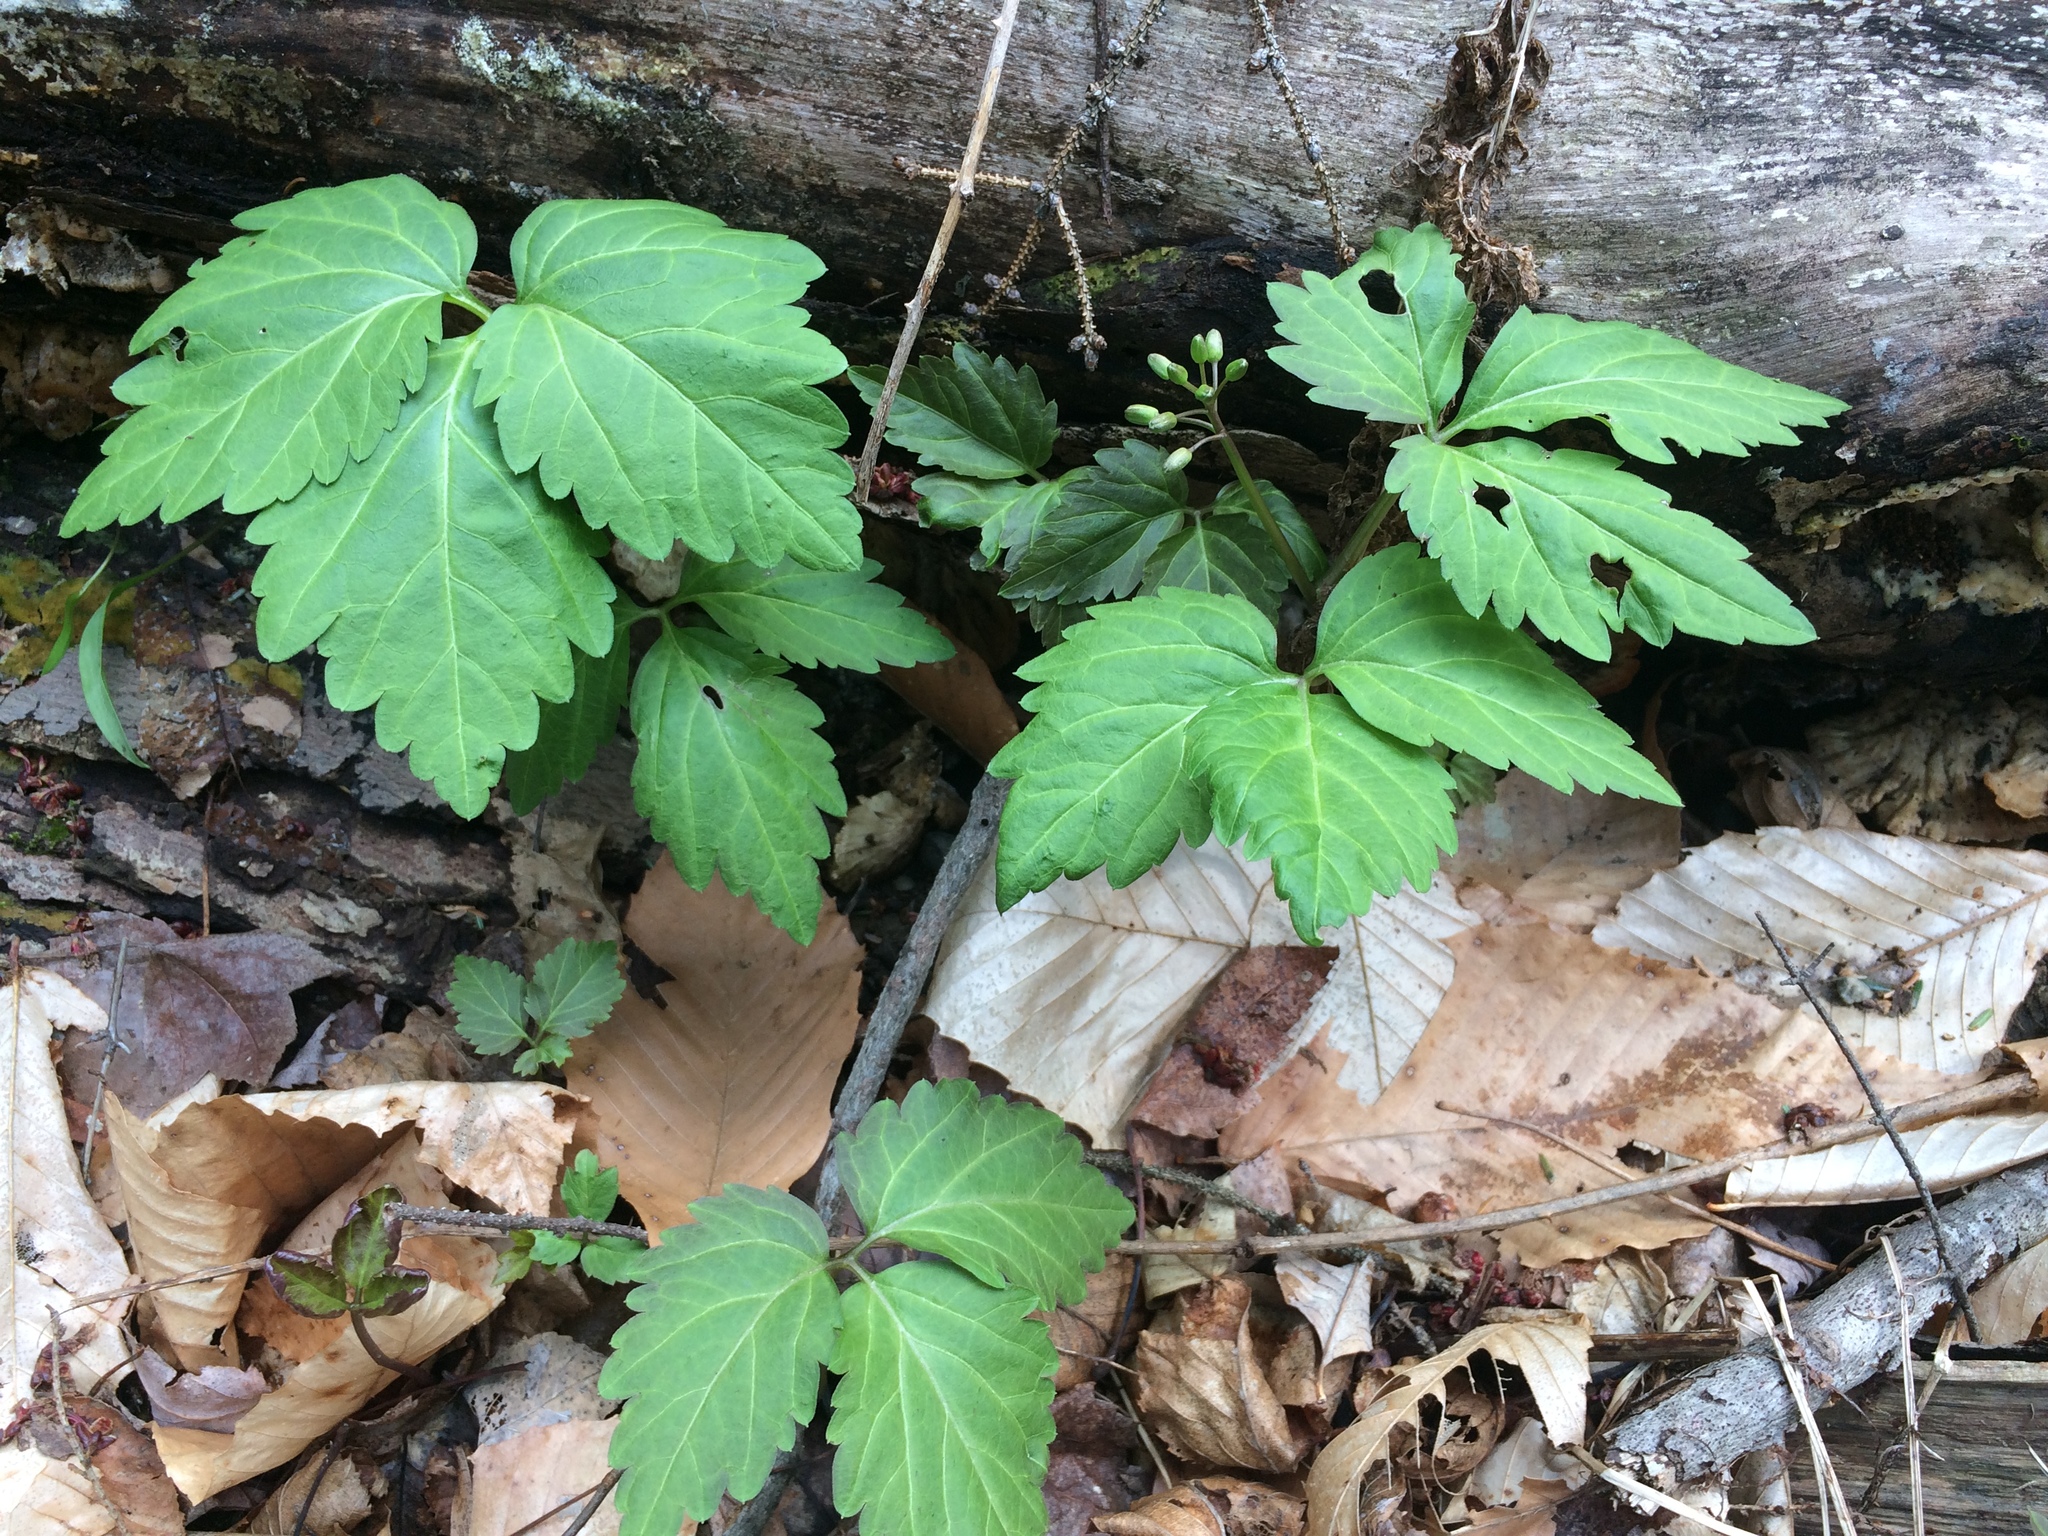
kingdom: Plantae
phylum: Tracheophyta
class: Magnoliopsida
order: Brassicales
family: Brassicaceae
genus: Cardamine
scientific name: Cardamine diphylla
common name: Broad-leaved toothwort
